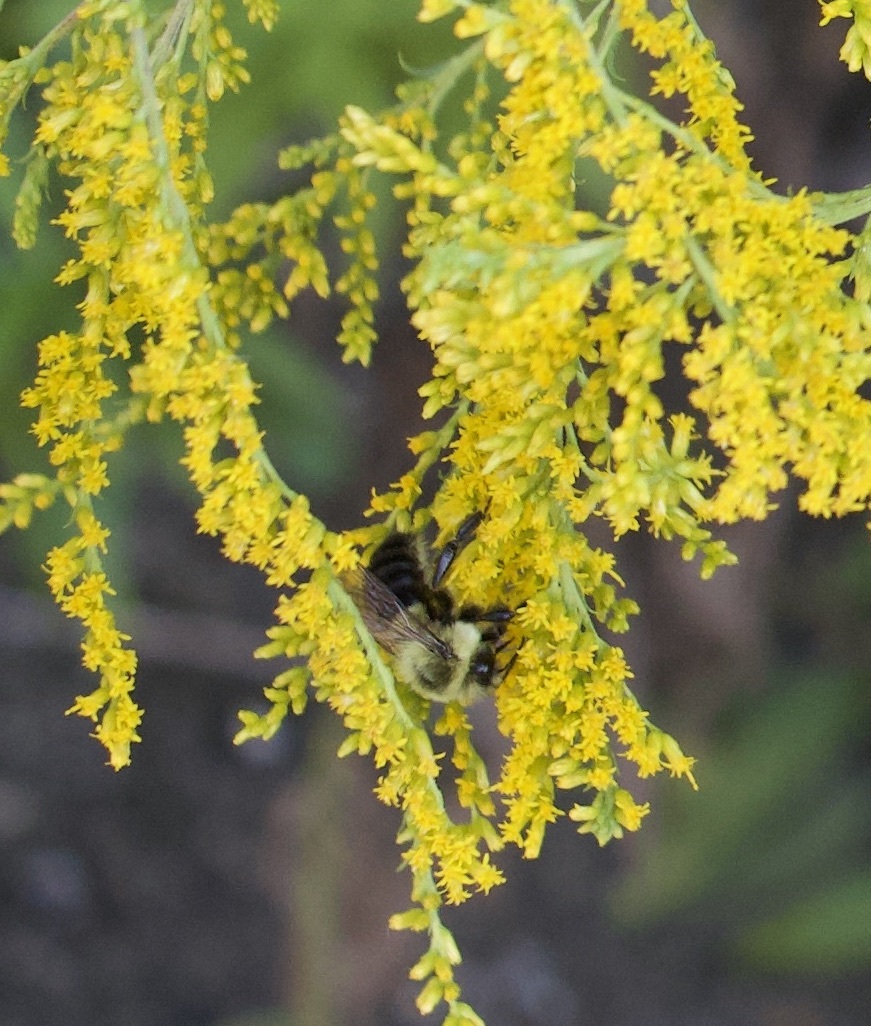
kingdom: Animalia
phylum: Arthropoda
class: Insecta
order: Hymenoptera
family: Apidae
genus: Bombus
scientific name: Bombus impatiens
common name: Common eastern bumble bee
